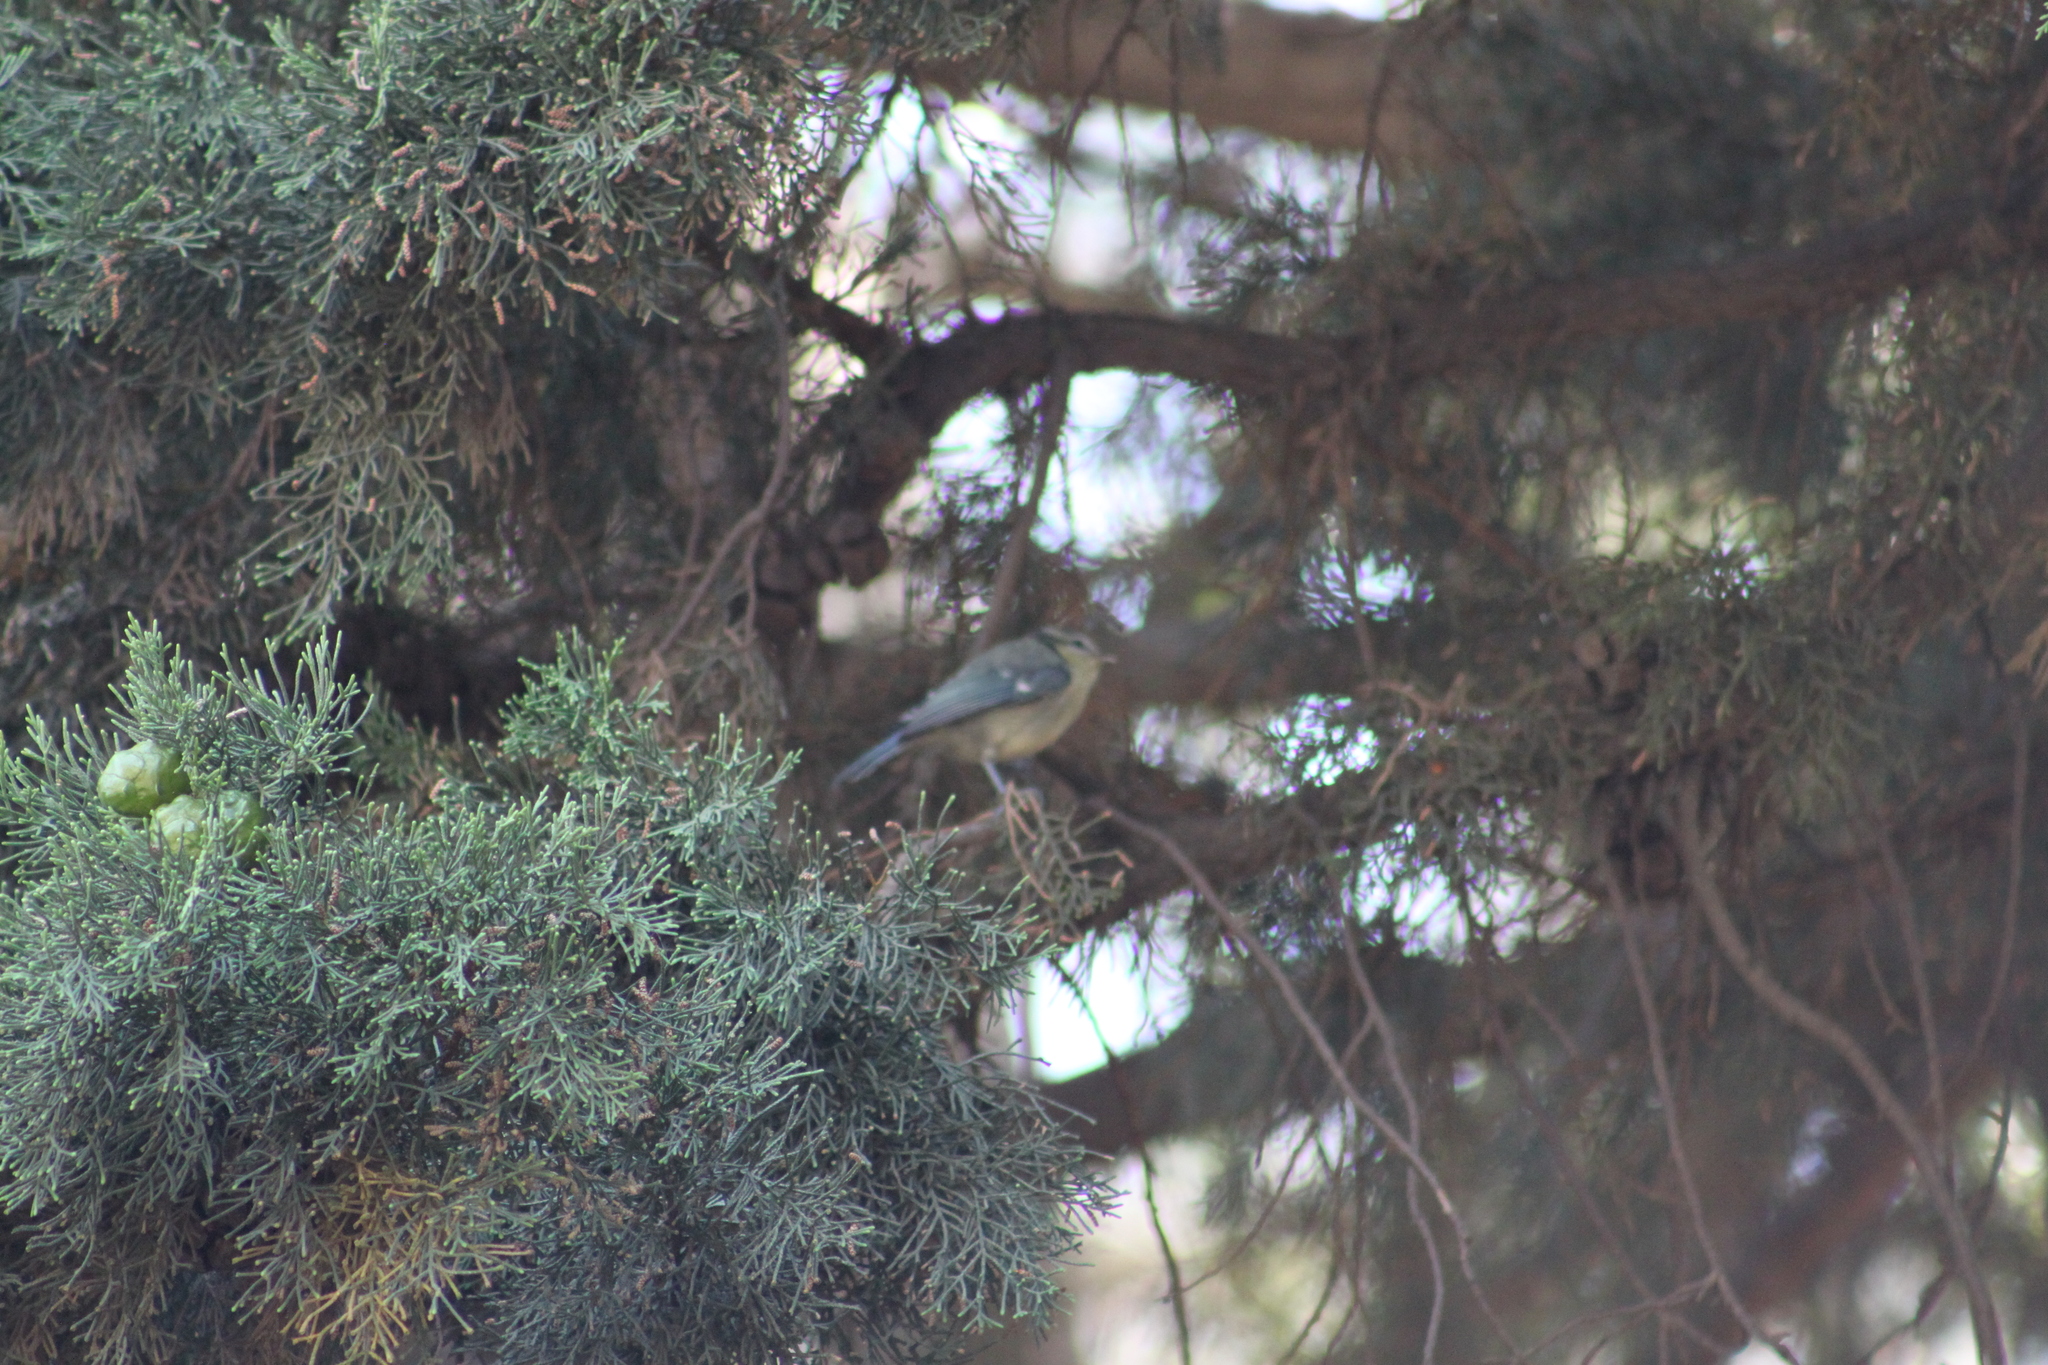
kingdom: Animalia
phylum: Chordata
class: Aves
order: Passeriformes
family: Paridae
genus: Cyanistes
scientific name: Cyanistes caeruleus
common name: Eurasian blue tit
